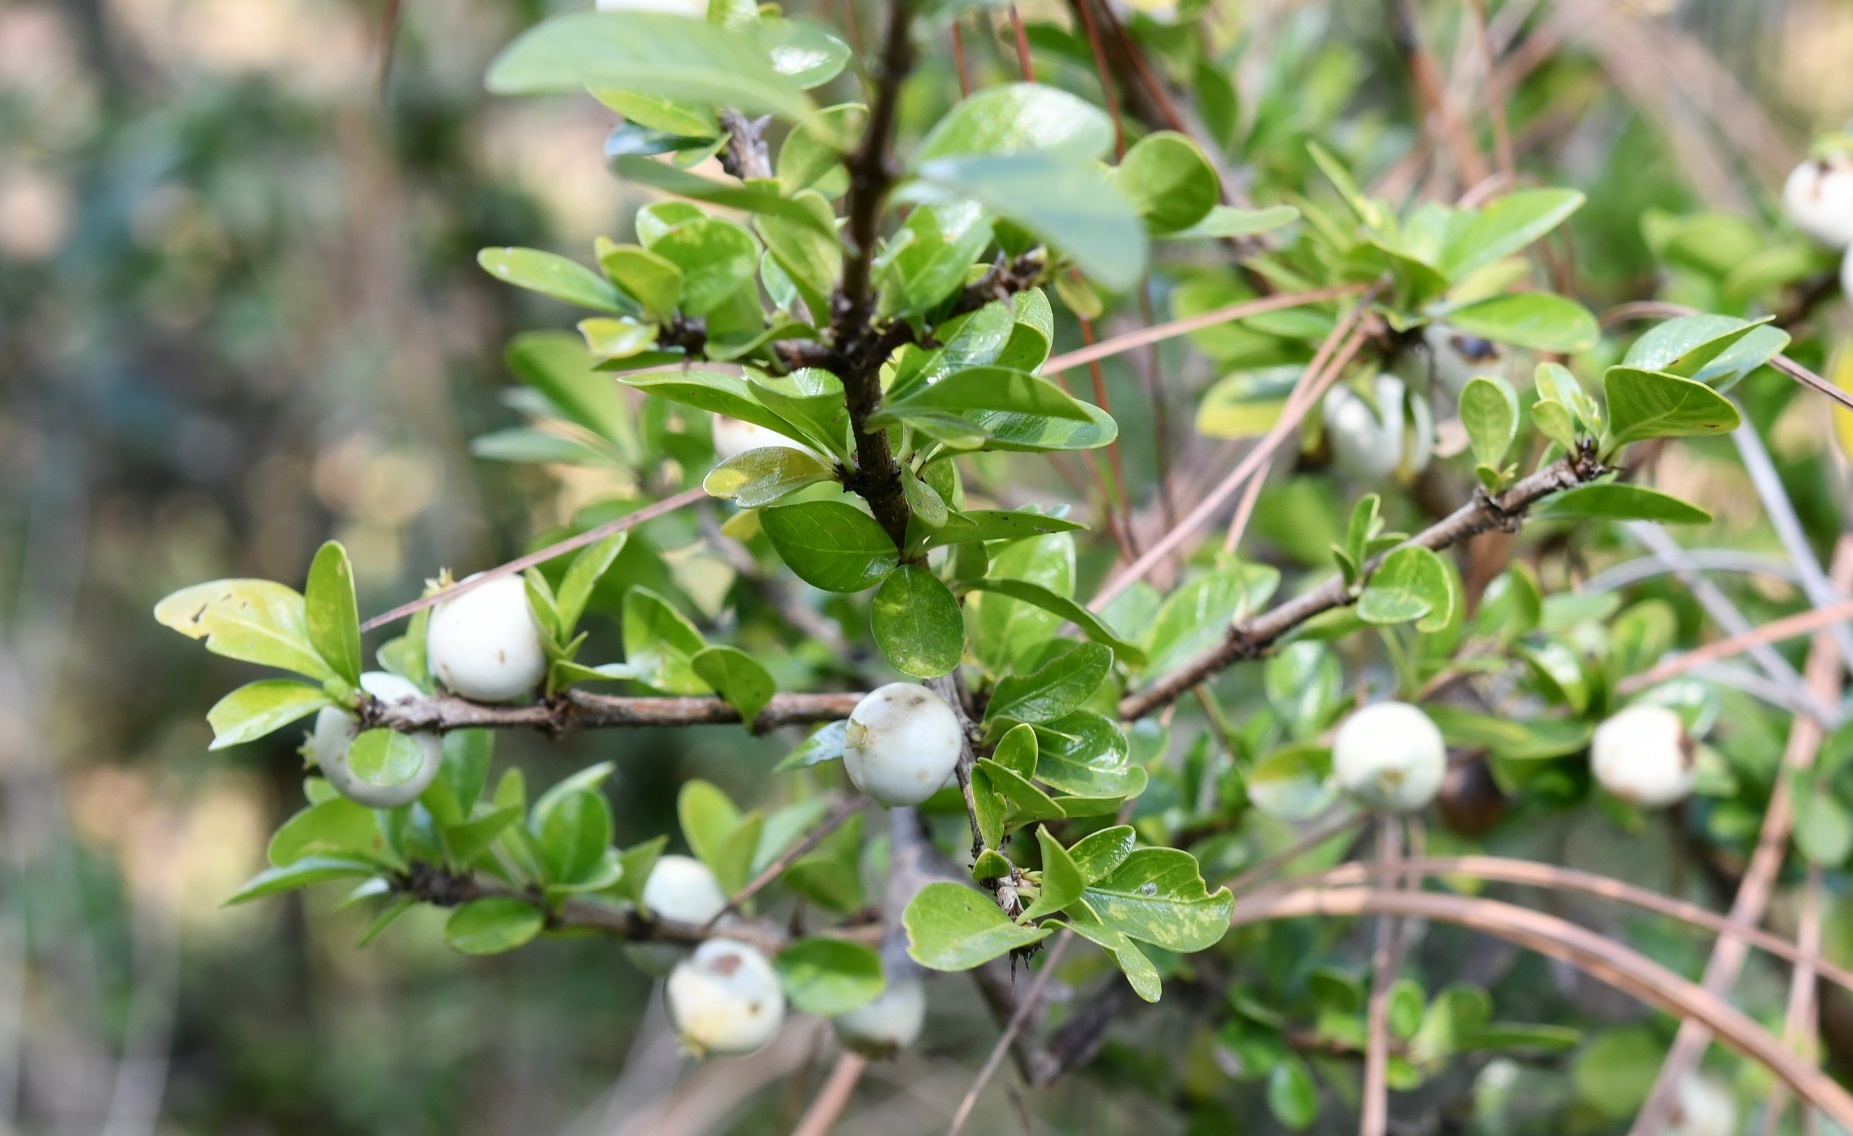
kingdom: Plantae
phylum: Tracheophyta
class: Magnoliopsida
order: Gentianales
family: Rubiaceae
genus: Randia
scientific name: Randia chiapensis
